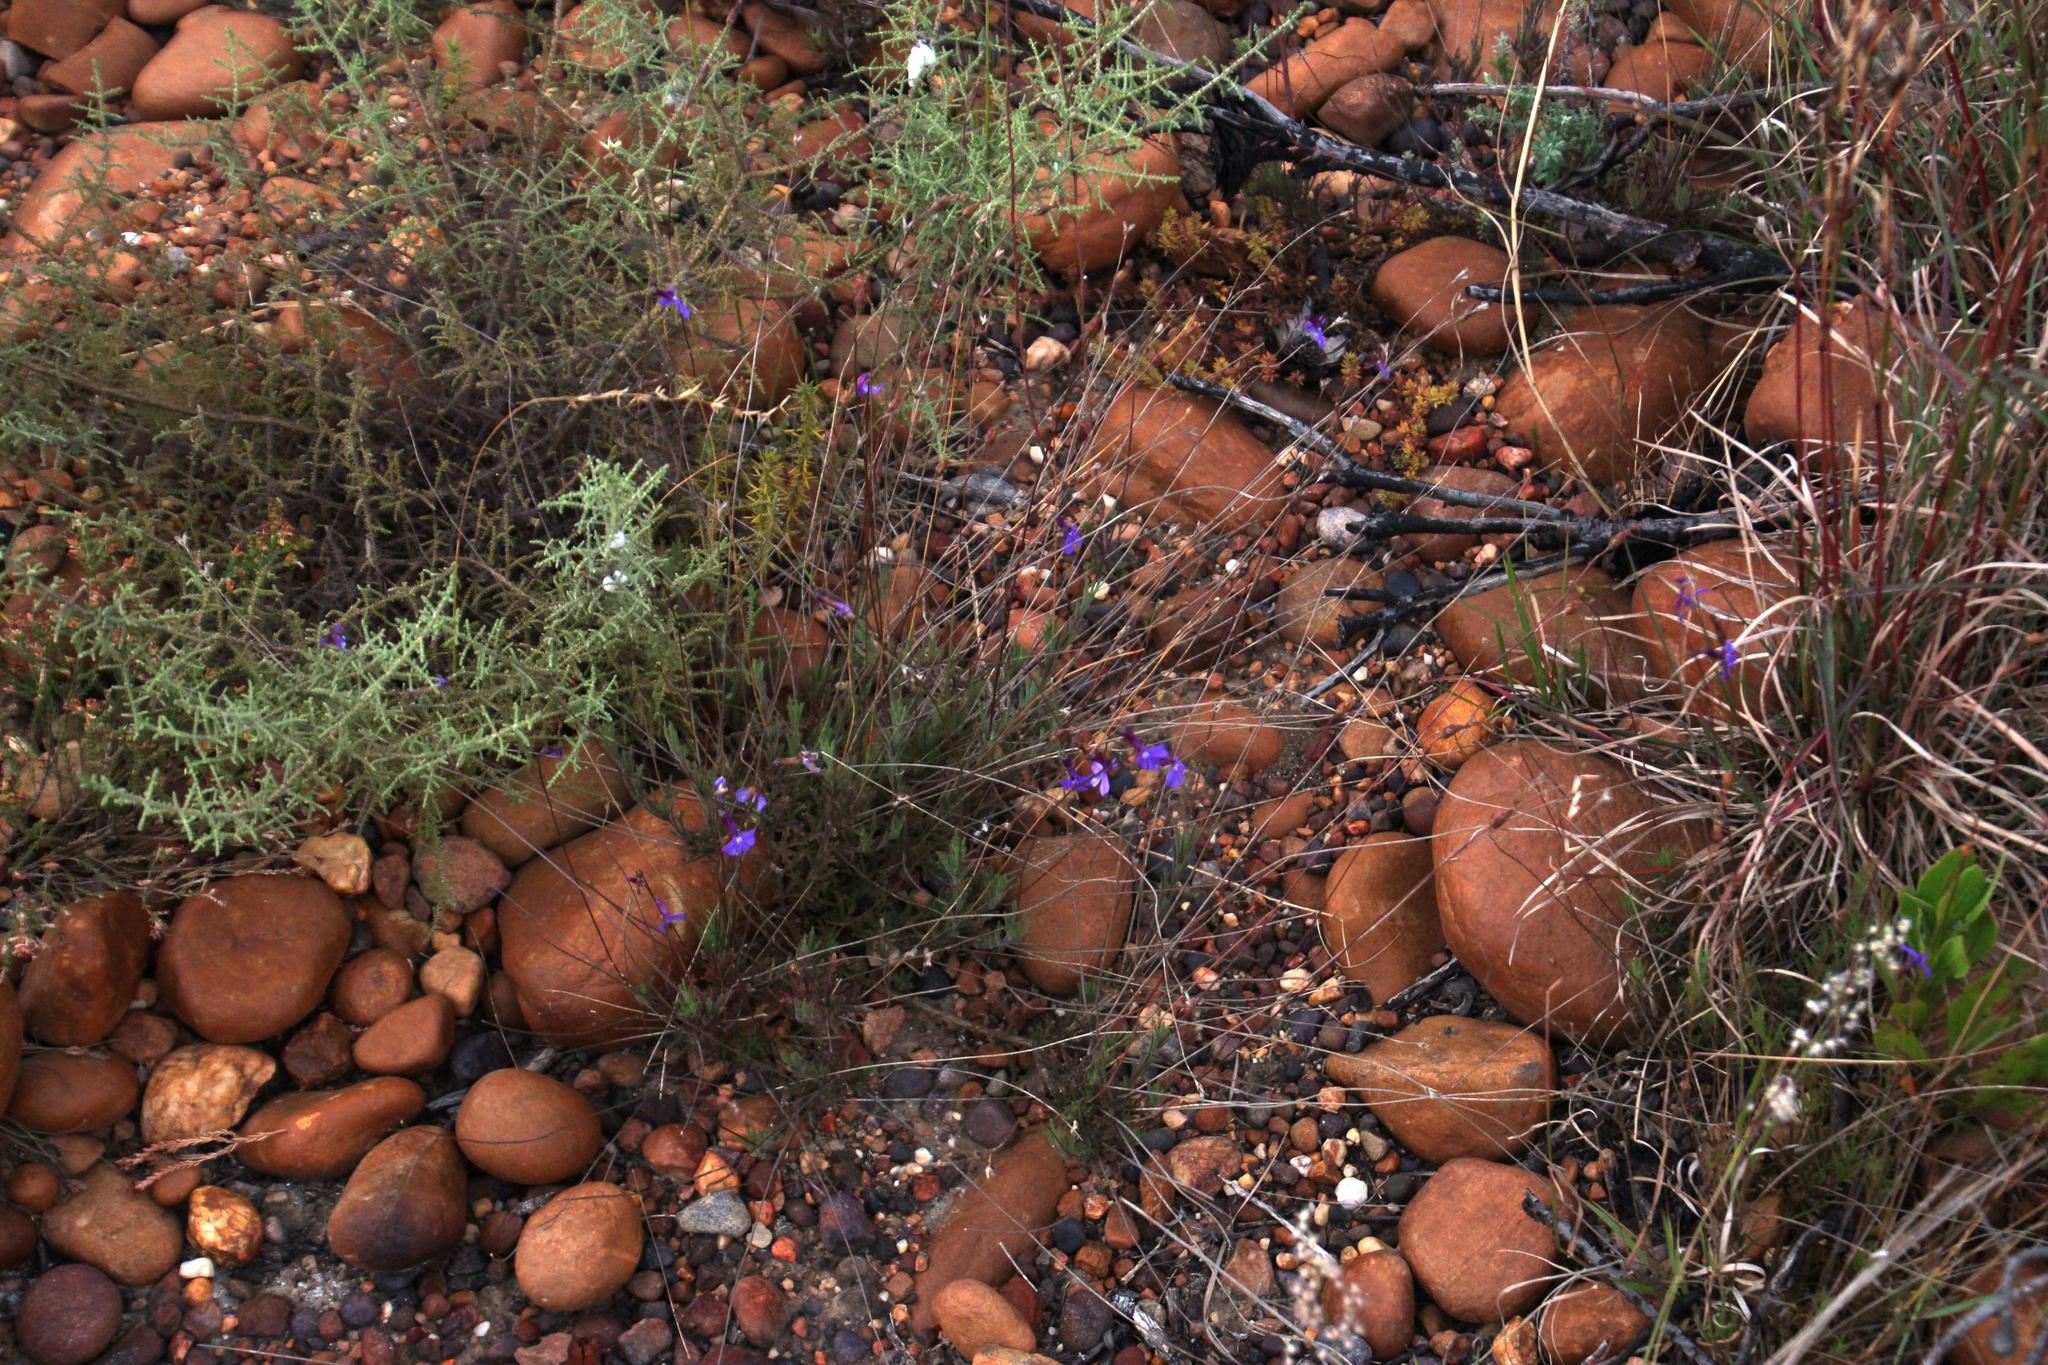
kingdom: Plantae
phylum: Tracheophyta
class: Magnoliopsida
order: Asterales
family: Campanulaceae
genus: Lobelia
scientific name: Lobelia chamaepitys
